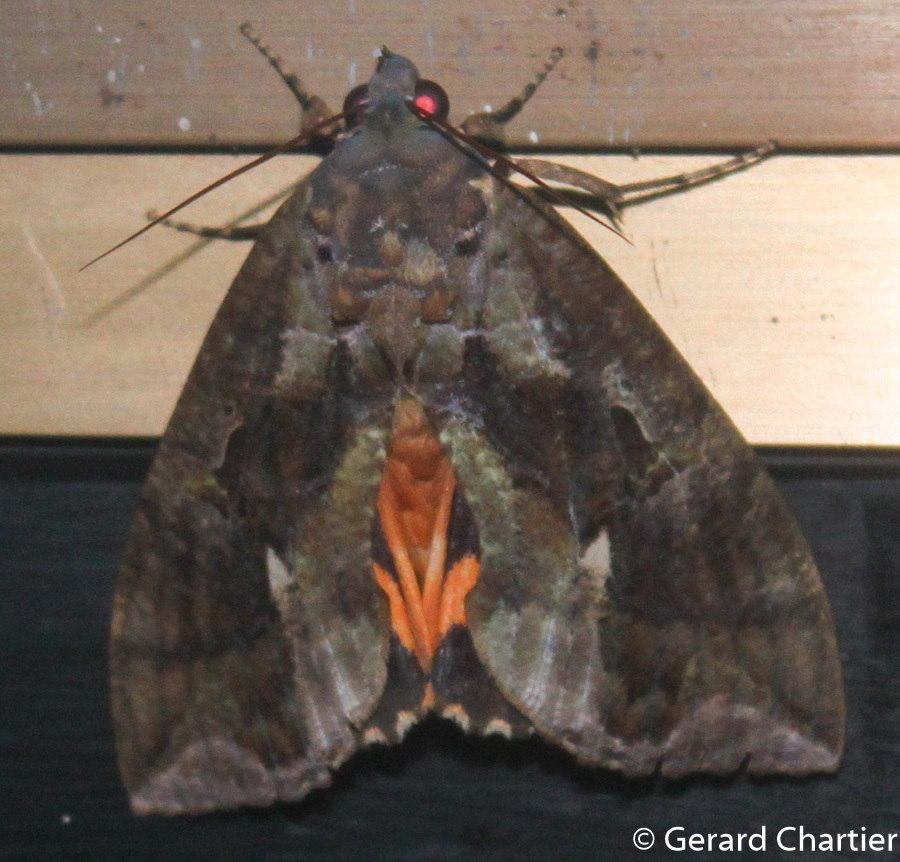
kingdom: Animalia
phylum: Arthropoda
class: Insecta
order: Lepidoptera
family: Erebidae
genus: Eudocima
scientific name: Eudocima phalonia
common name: Wasp
